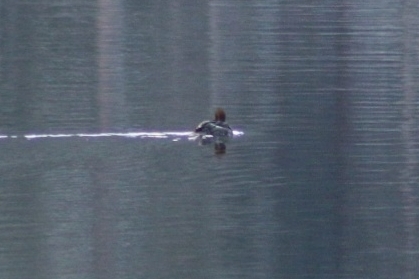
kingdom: Animalia
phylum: Chordata
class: Aves
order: Anseriformes
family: Anatidae
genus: Bucephala
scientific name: Bucephala islandica
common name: Barrow's goldeneye
